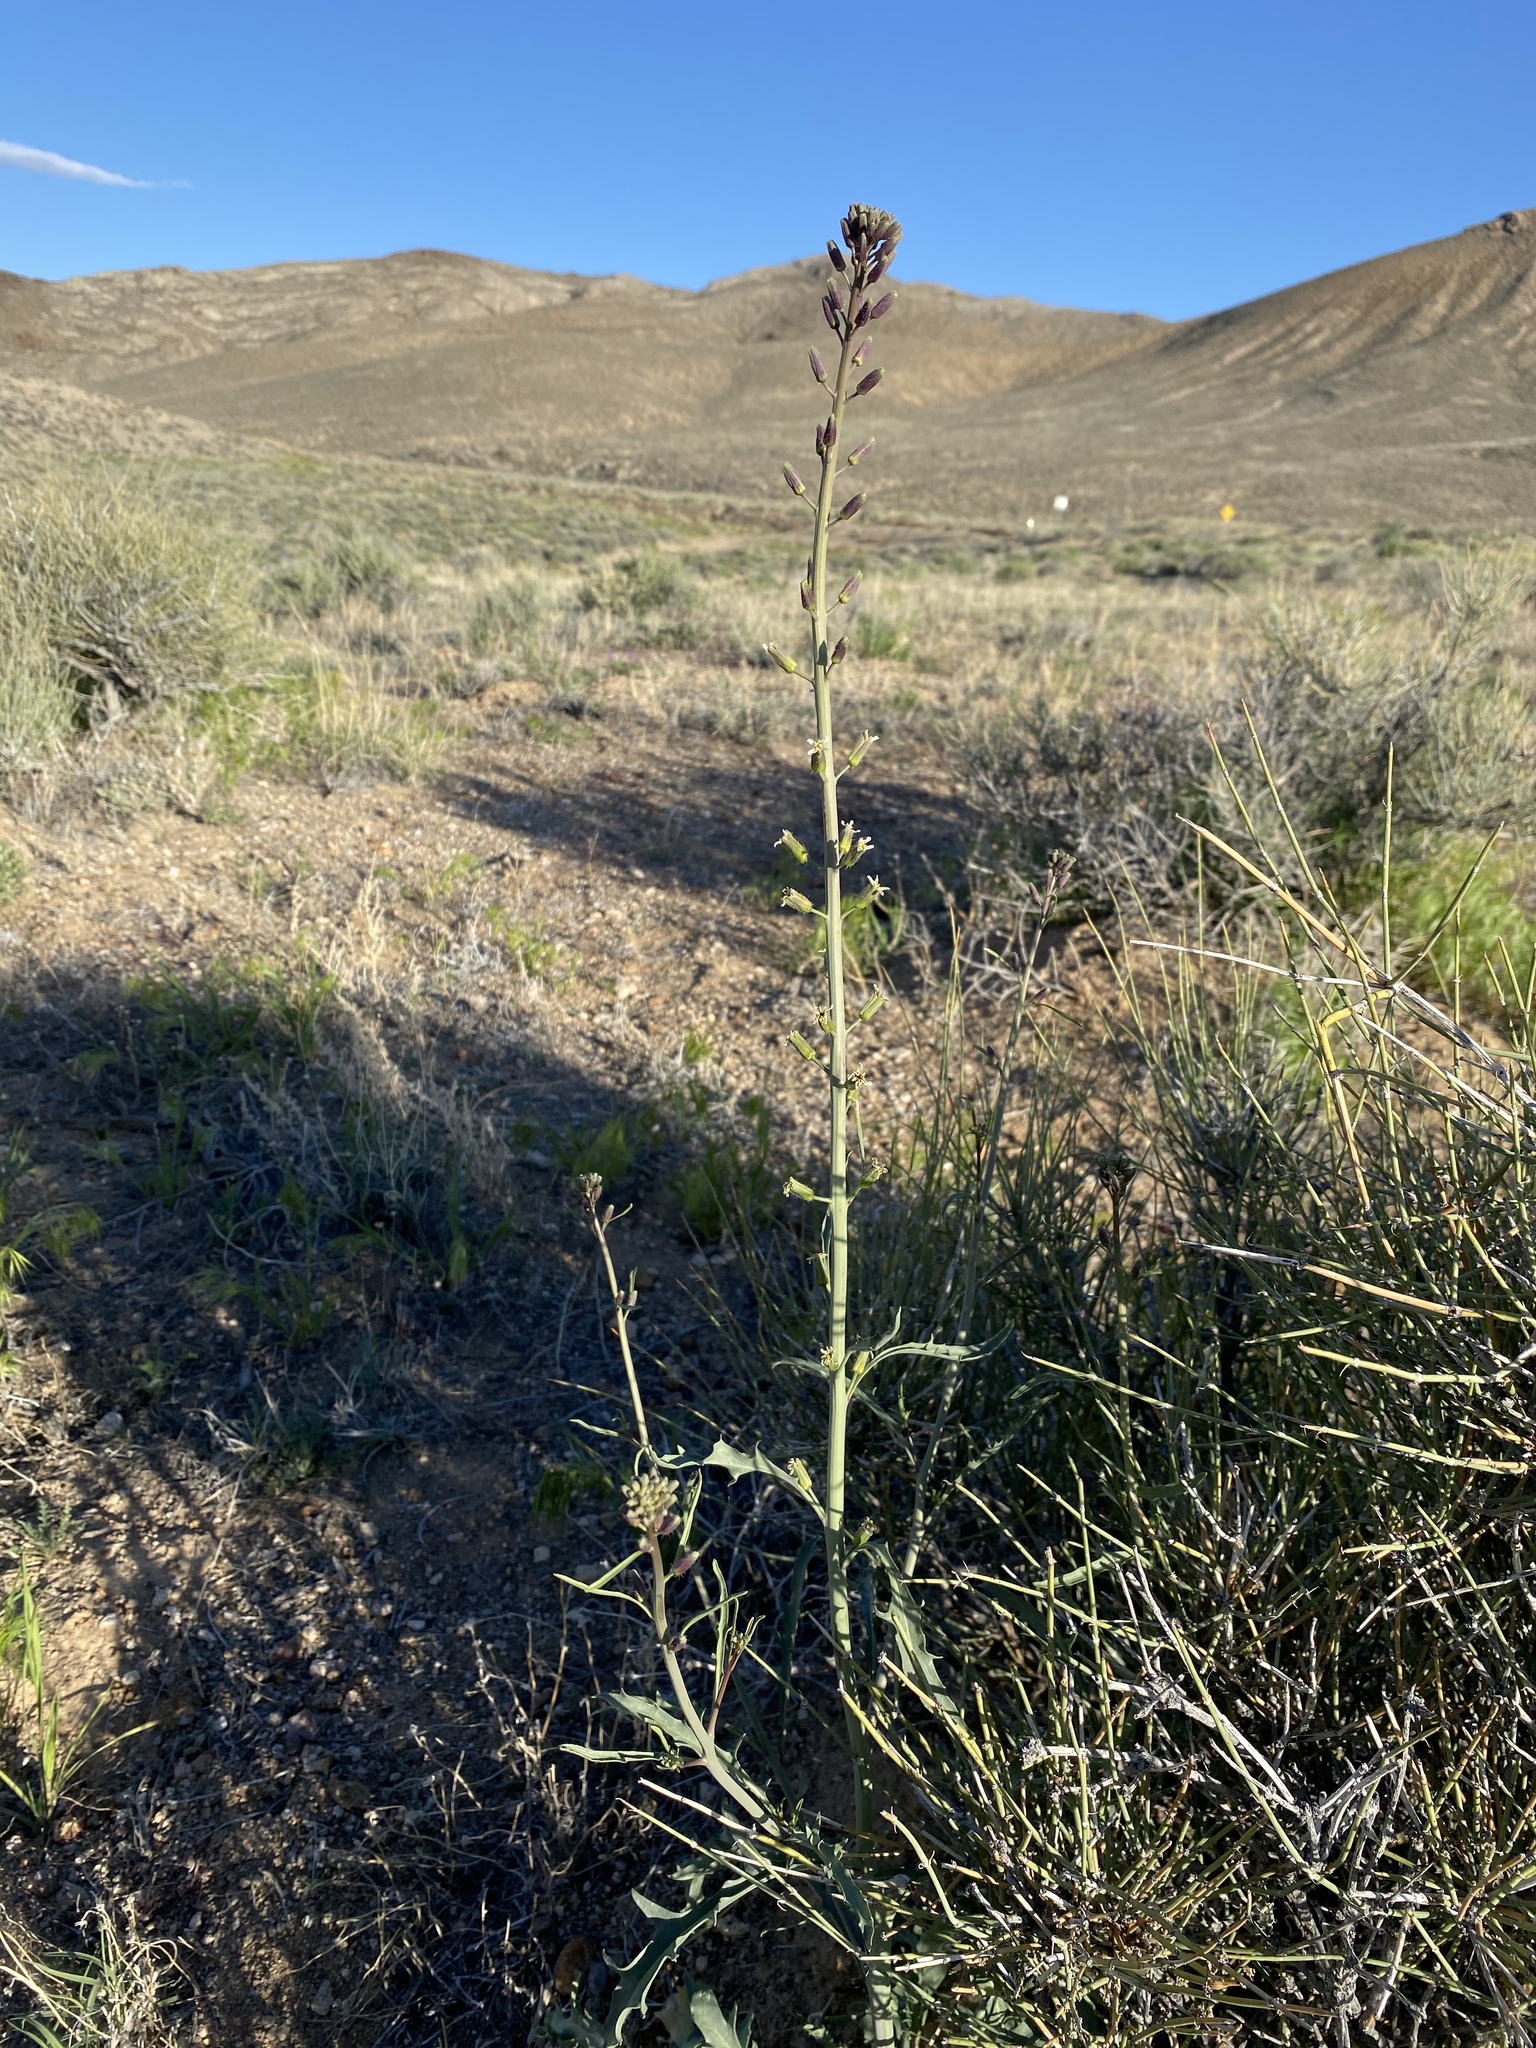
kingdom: Plantae
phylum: Tracheophyta
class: Magnoliopsida
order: Brassicales
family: Brassicaceae
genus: Streptanthus
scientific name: Streptanthus pilosus
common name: Chocolate drops
